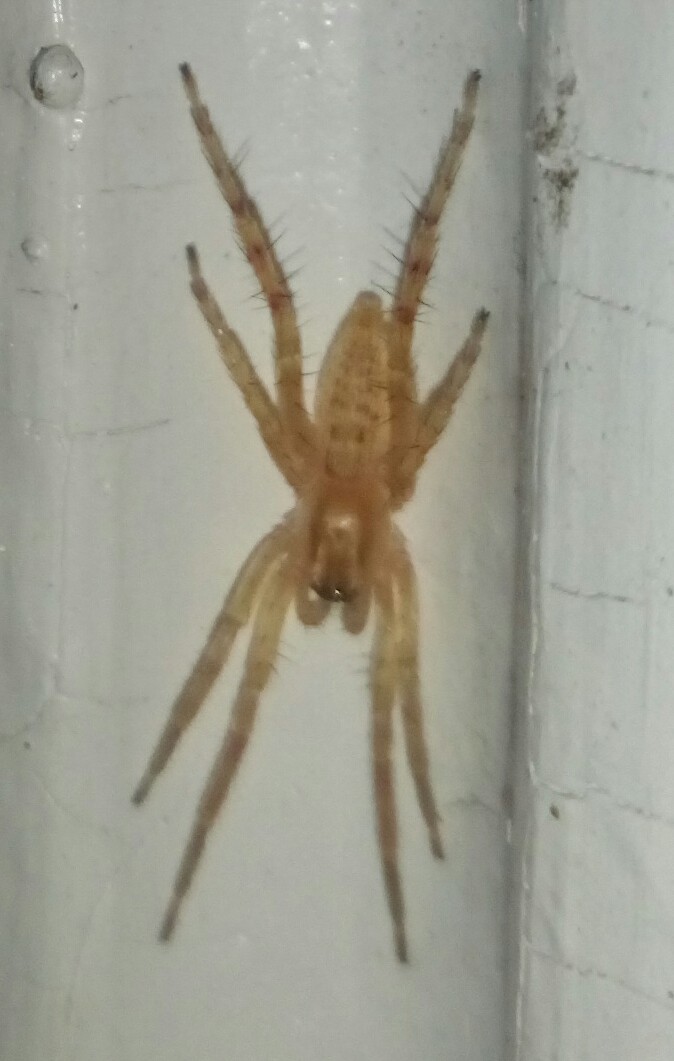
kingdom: Animalia
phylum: Arthropoda
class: Arachnida
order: Araneae
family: Anyphaenidae
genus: Hibana
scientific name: Hibana gracilis
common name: Garden ghost spider
